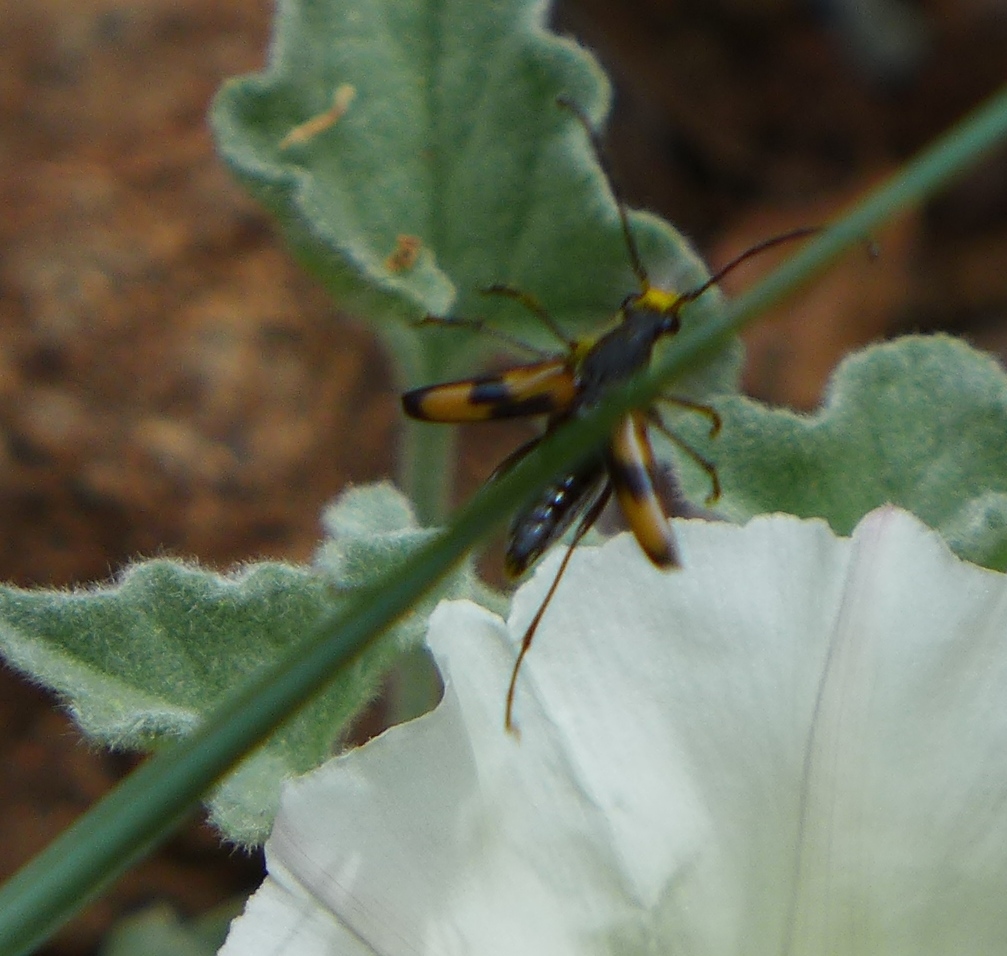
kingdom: Animalia
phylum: Arthropoda
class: Insecta
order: Coleoptera
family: Cerambycidae
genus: Anastrangalia
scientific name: Anastrangalia laetifica
